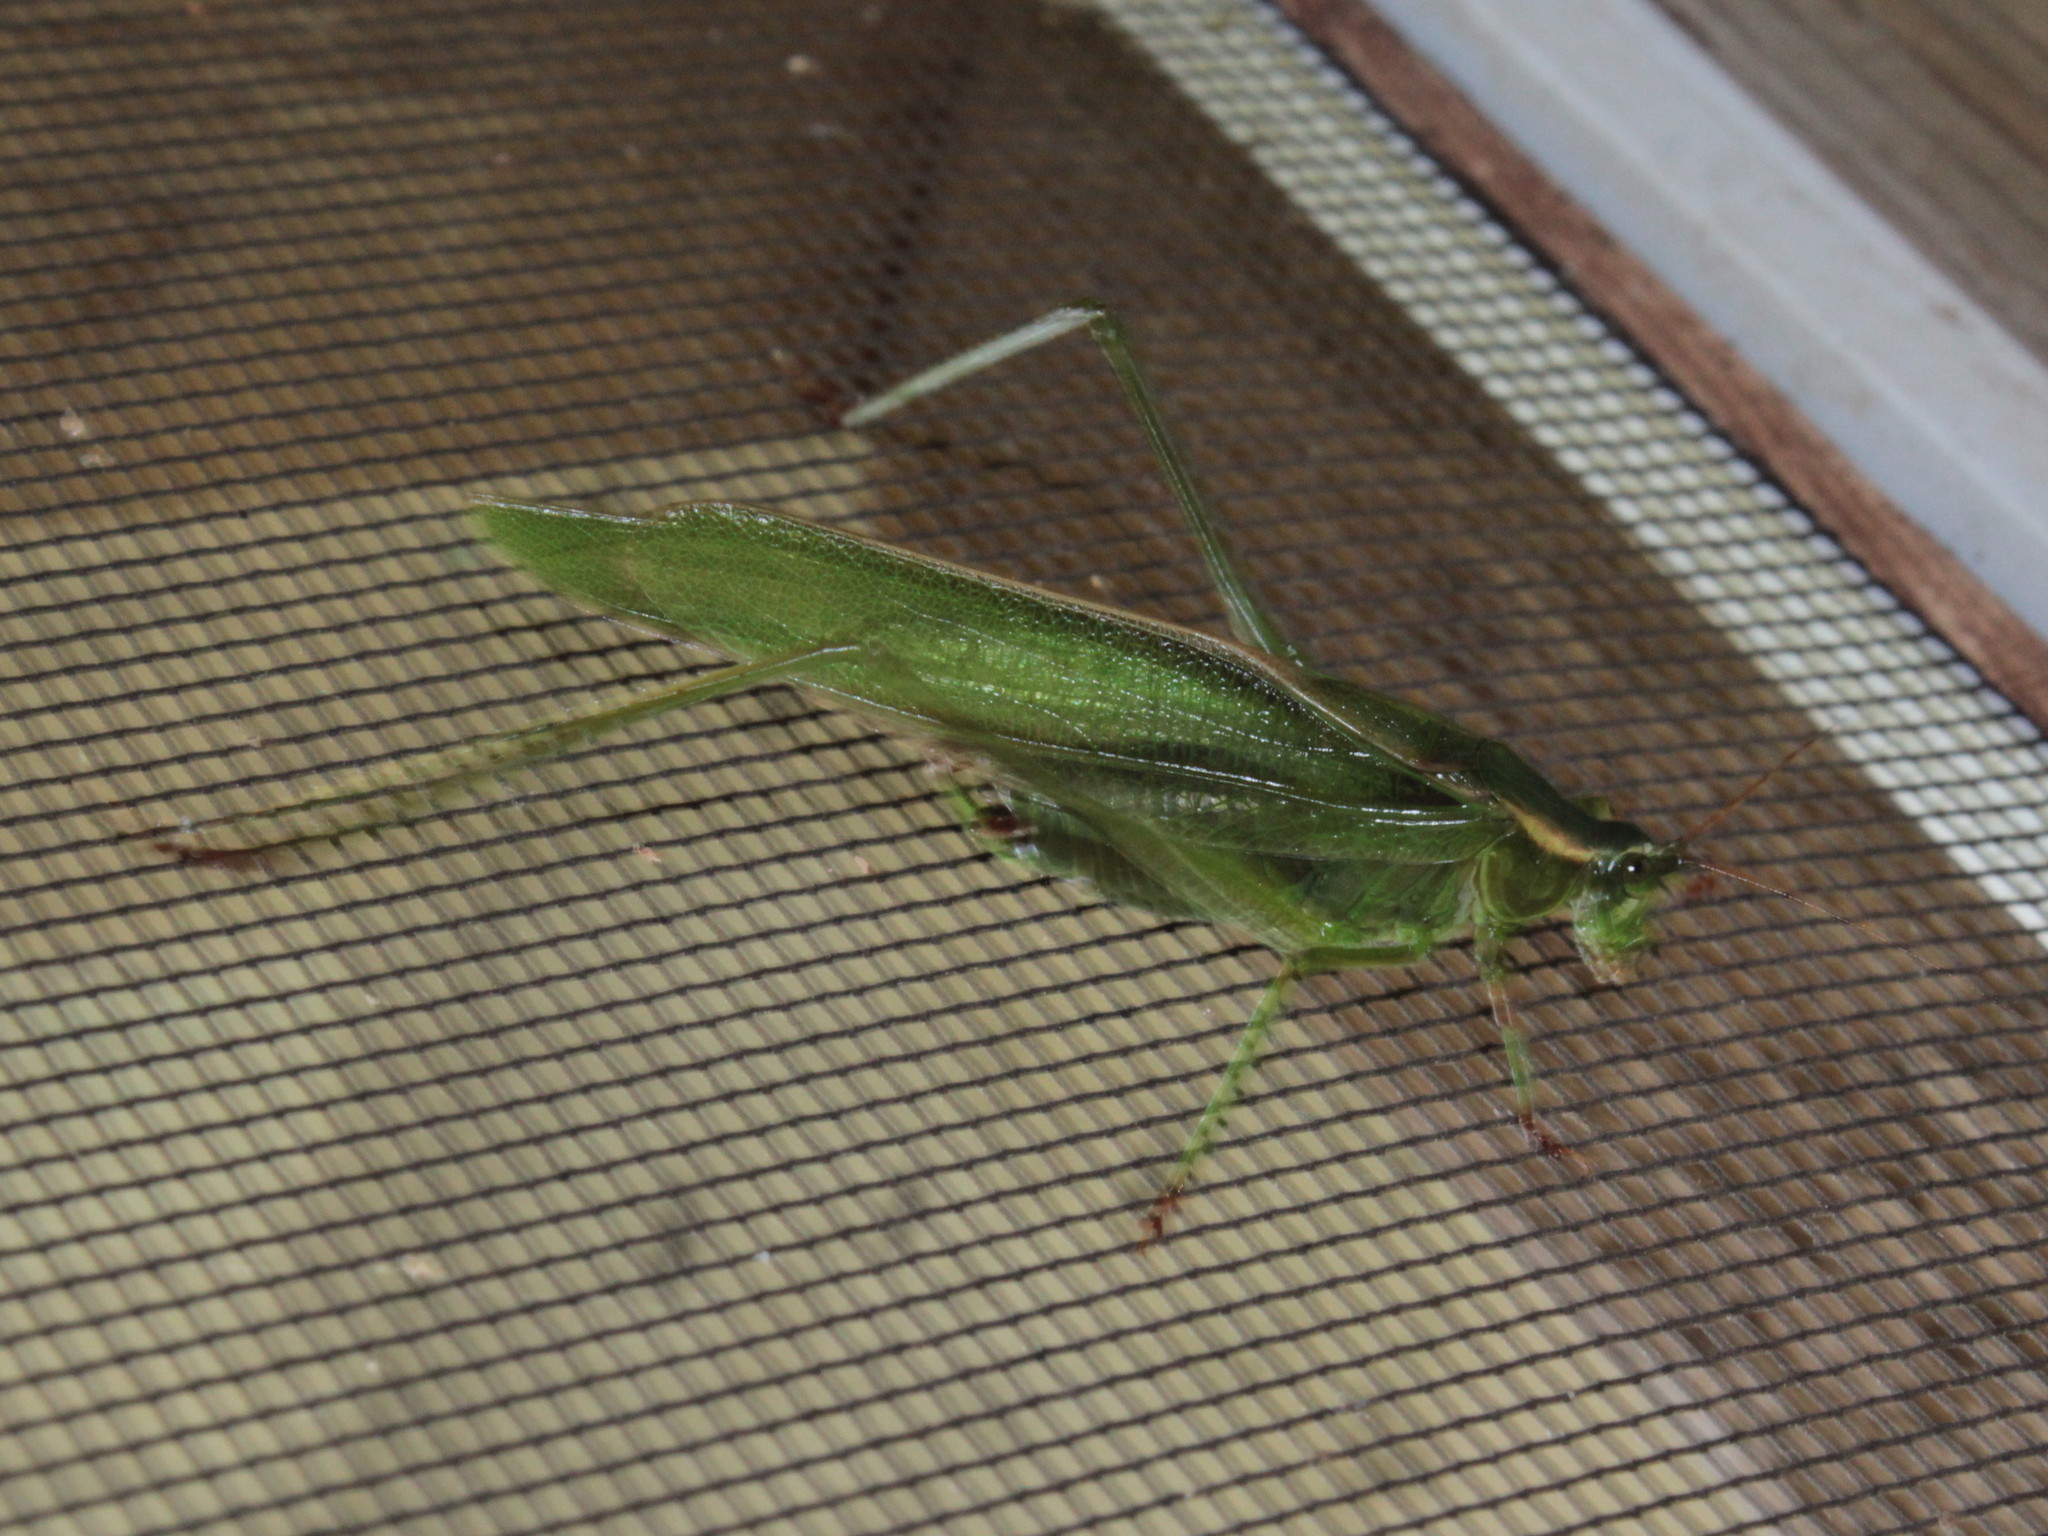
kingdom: Animalia
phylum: Arthropoda
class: Insecta
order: Orthoptera
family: Tettigoniidae
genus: Scudderia
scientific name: Scudderia fasciata
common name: Treetop bush katydid
